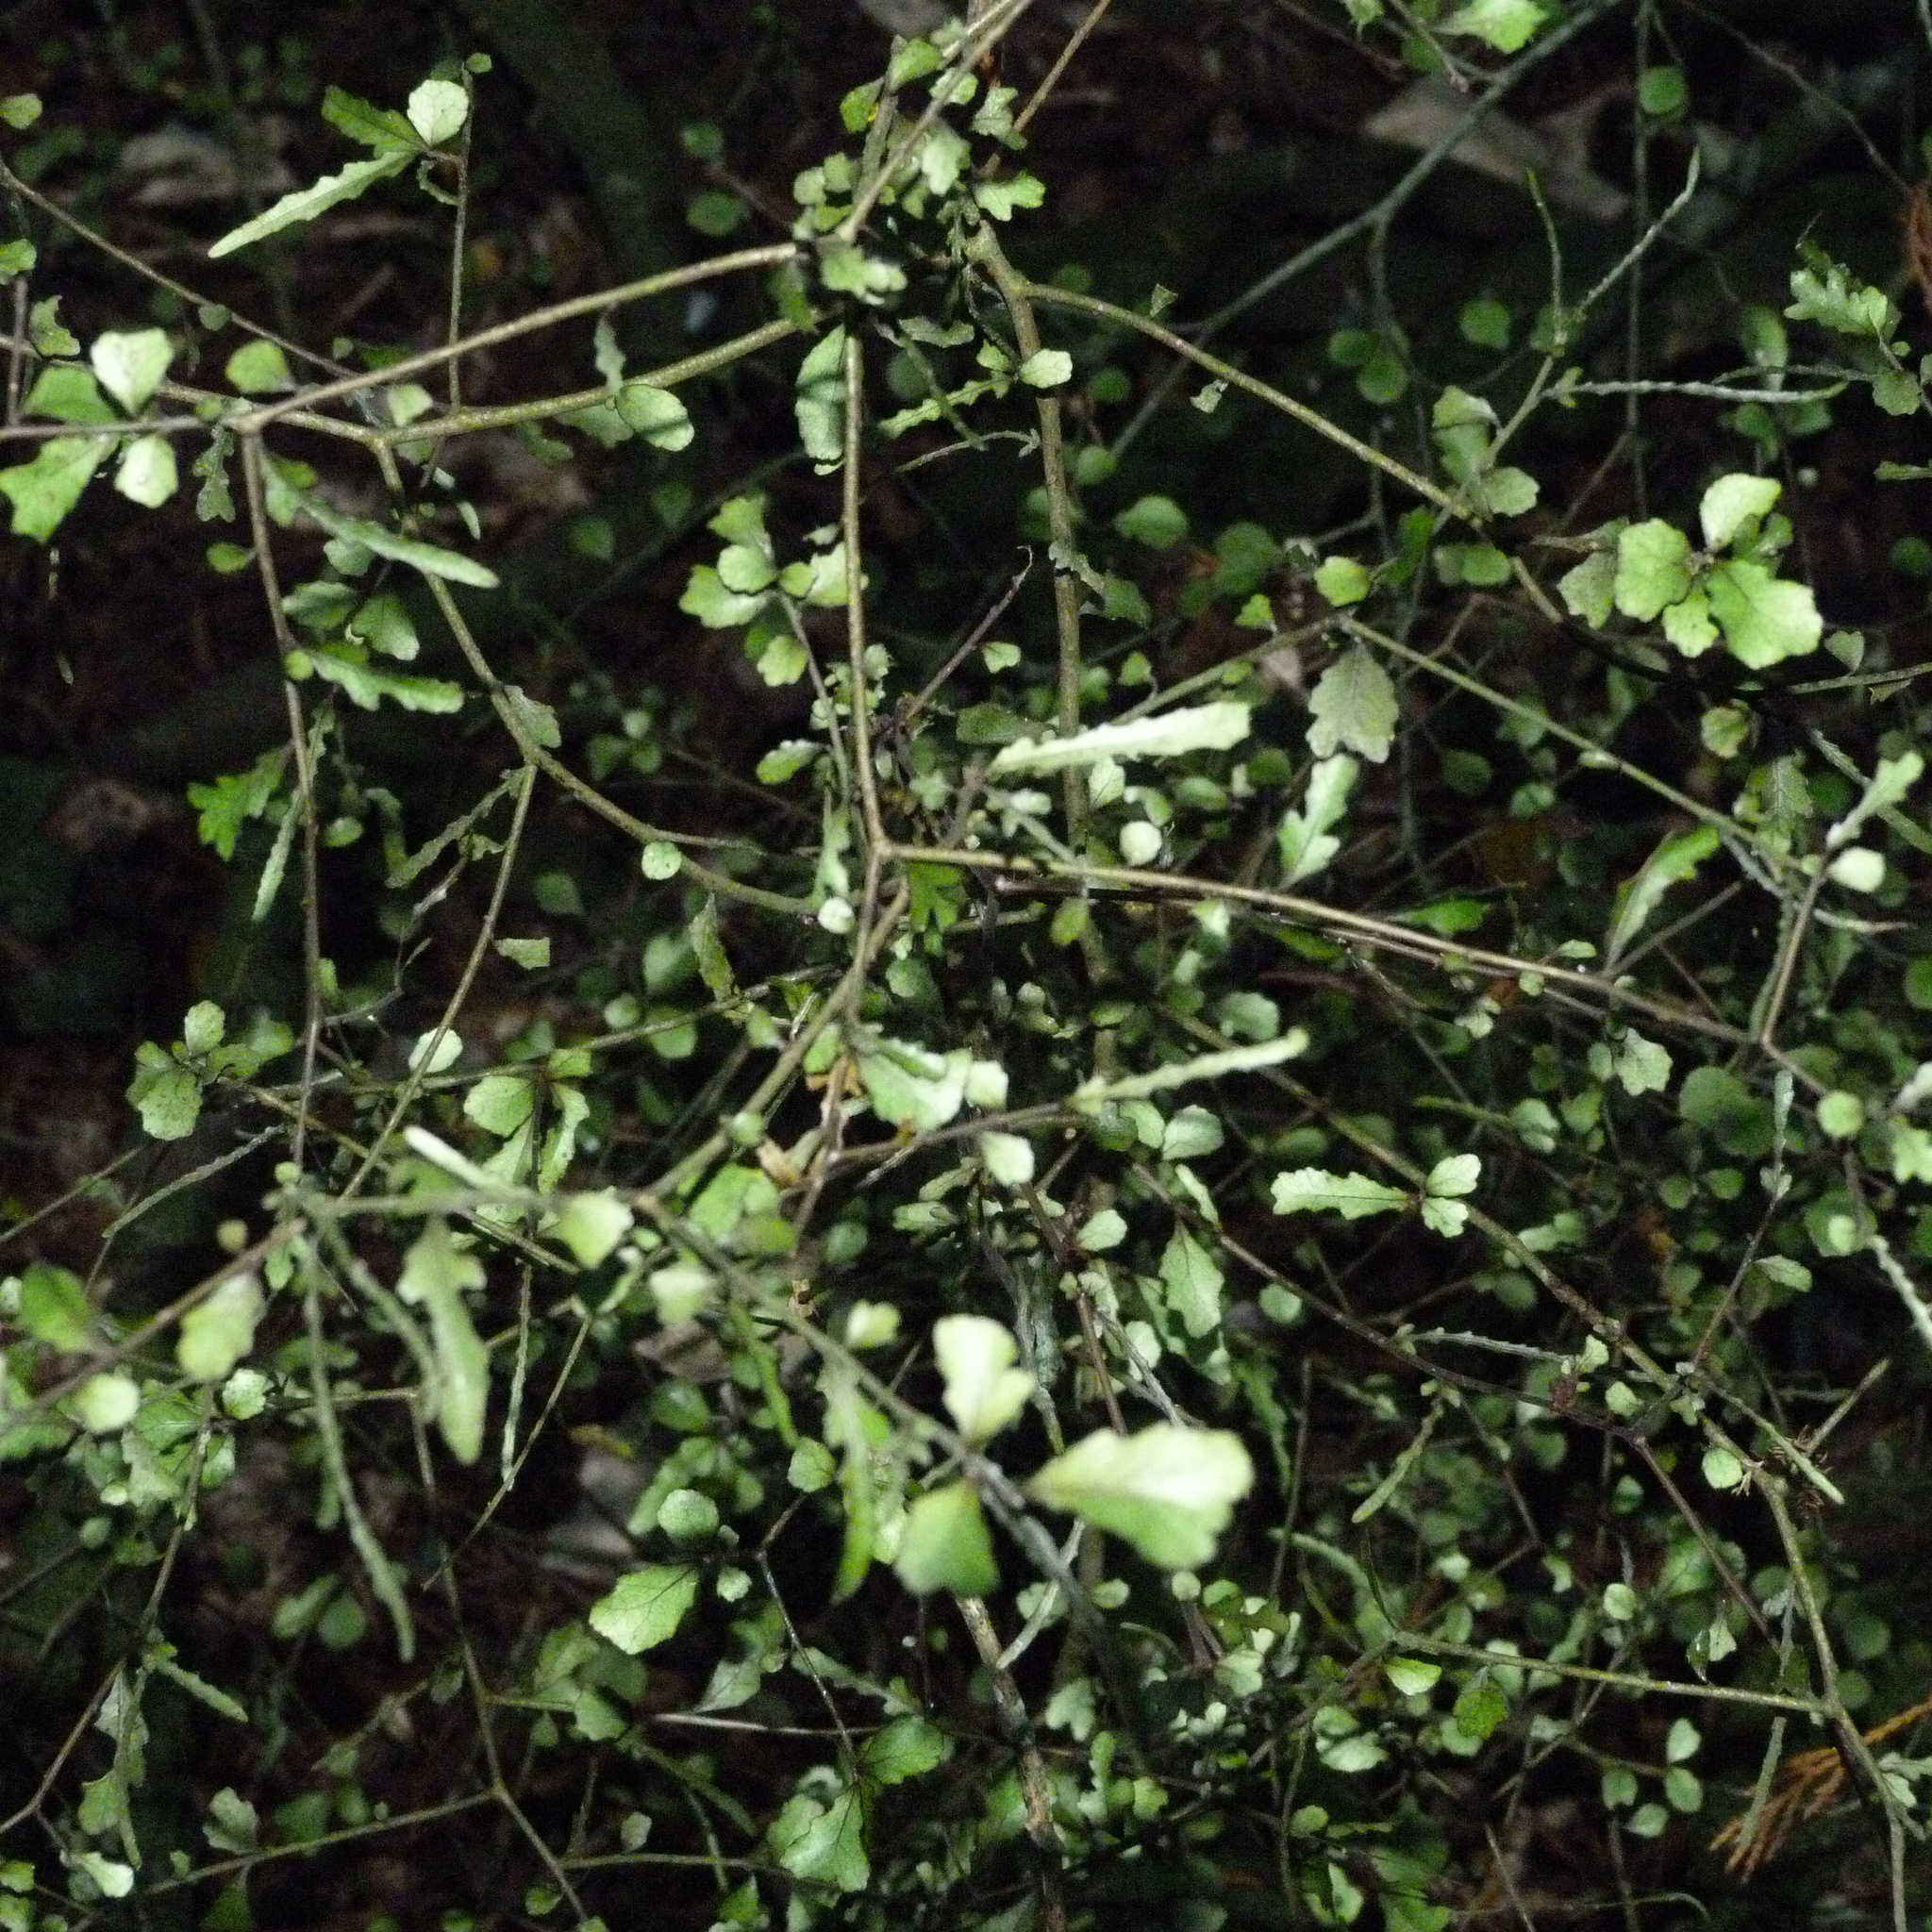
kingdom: Plantae
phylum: Tracheophyta
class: Magnoliopsida
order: Oxalidales
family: Elaeocarpaceae
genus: Elaeocarpus
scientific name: Elaeocarpus hookerianus
